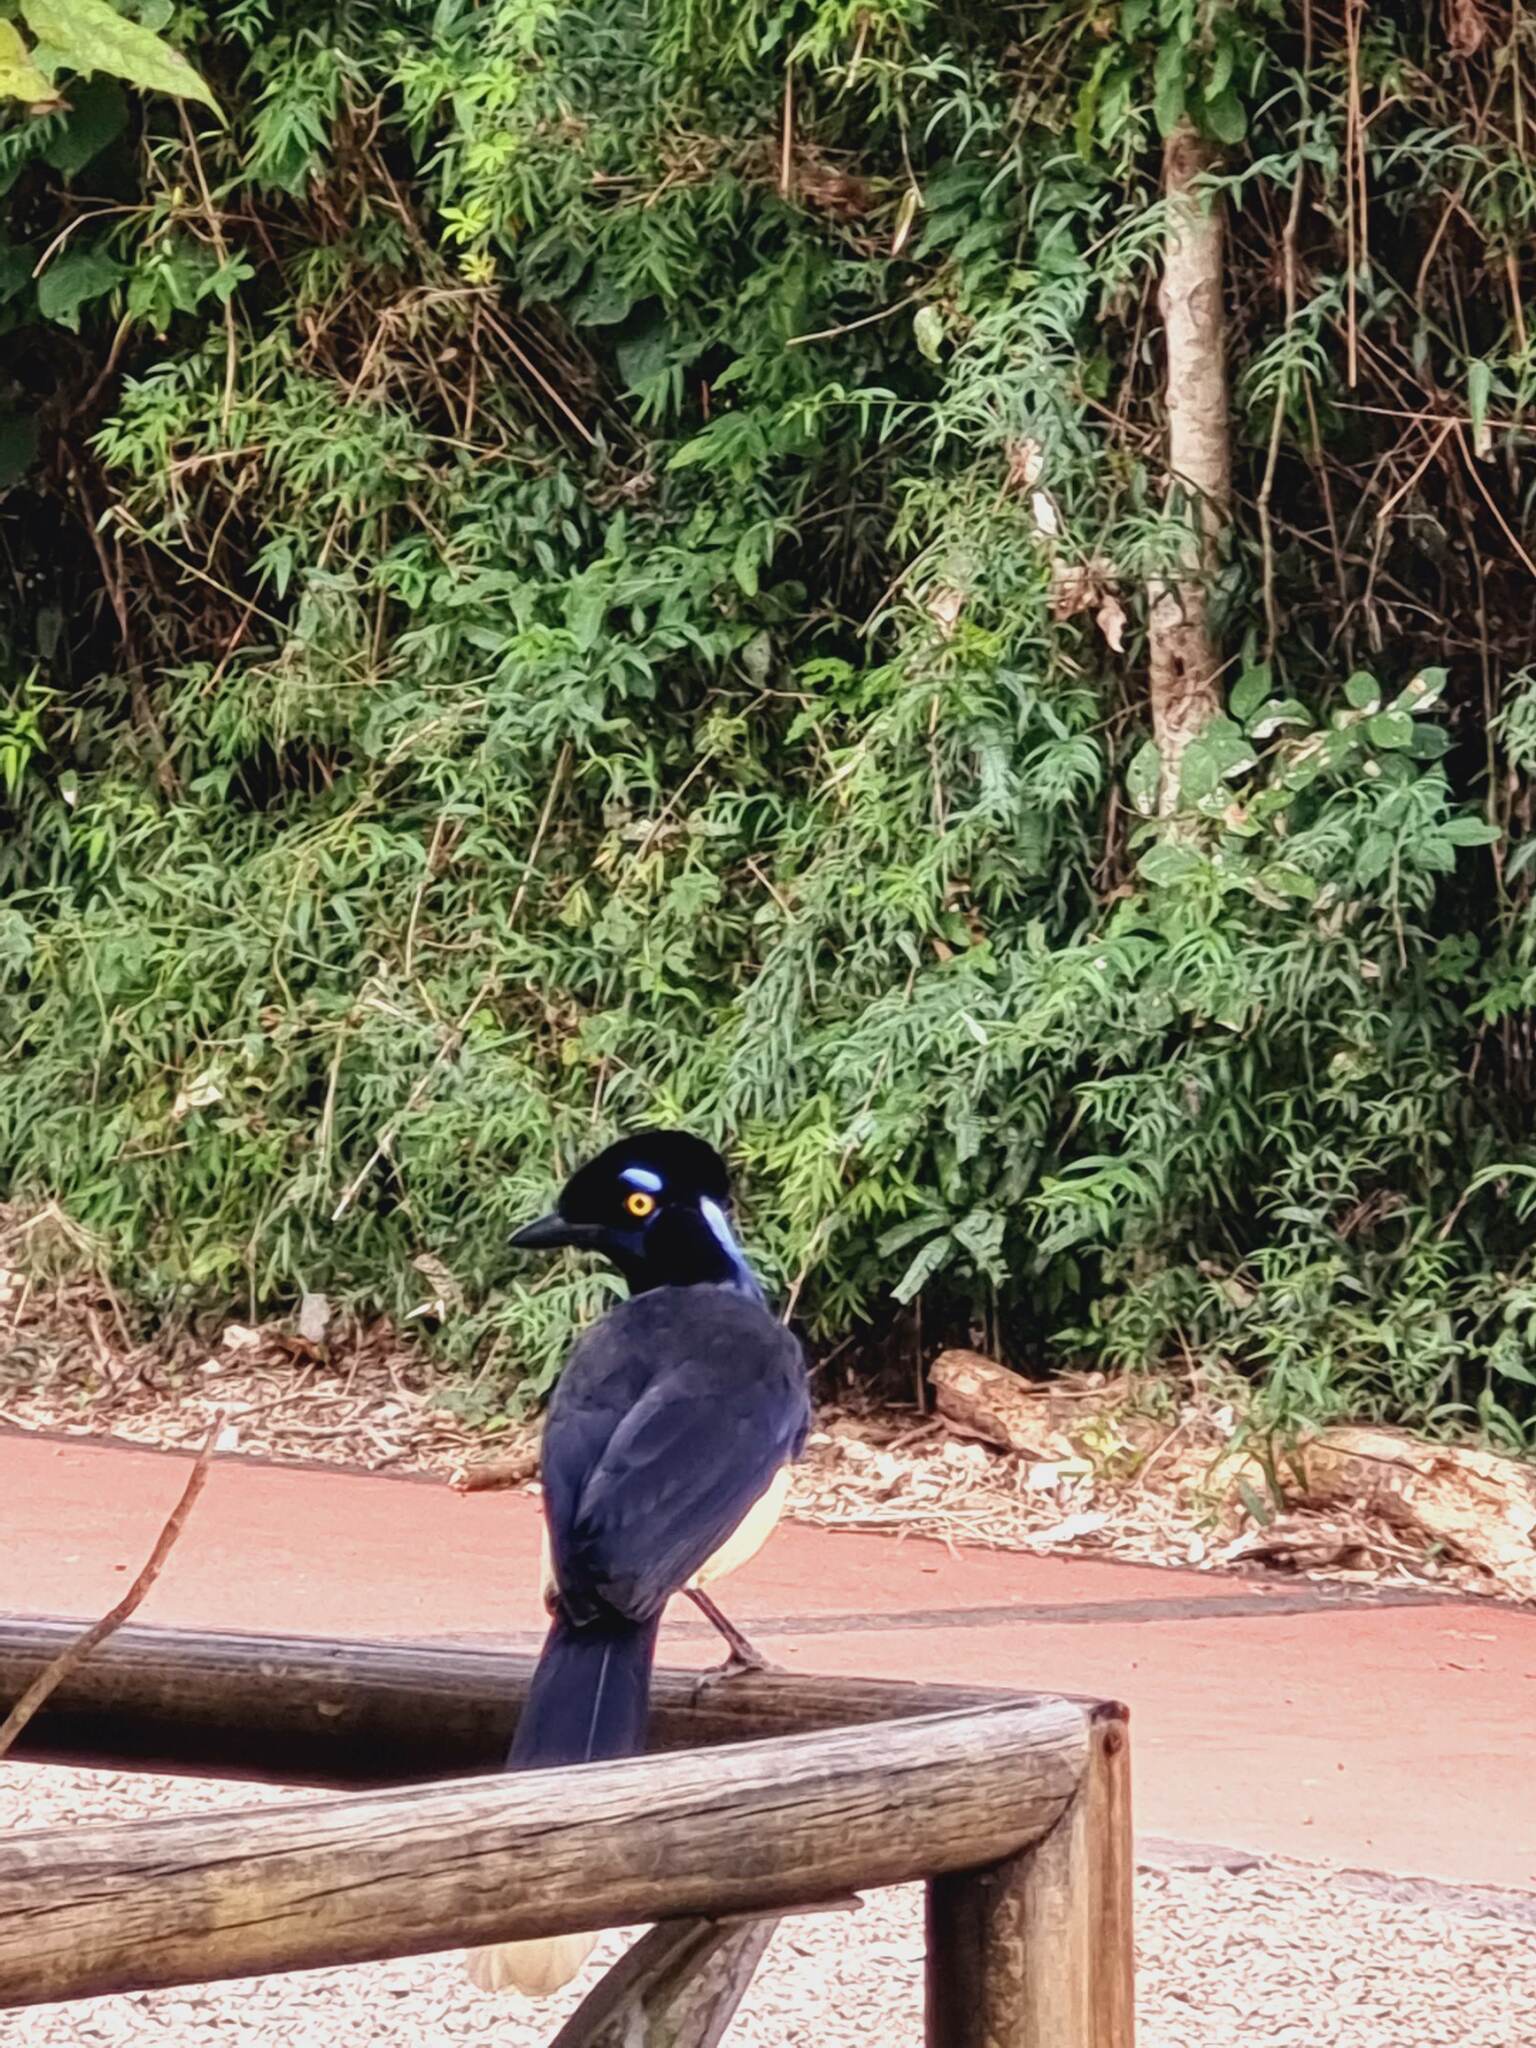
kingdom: Animalia
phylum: Chordata
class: Aves
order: Passeriformes
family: Corvidae
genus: Cyanocorax
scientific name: Cyanocorax chrysops
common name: Plush-crested jay
